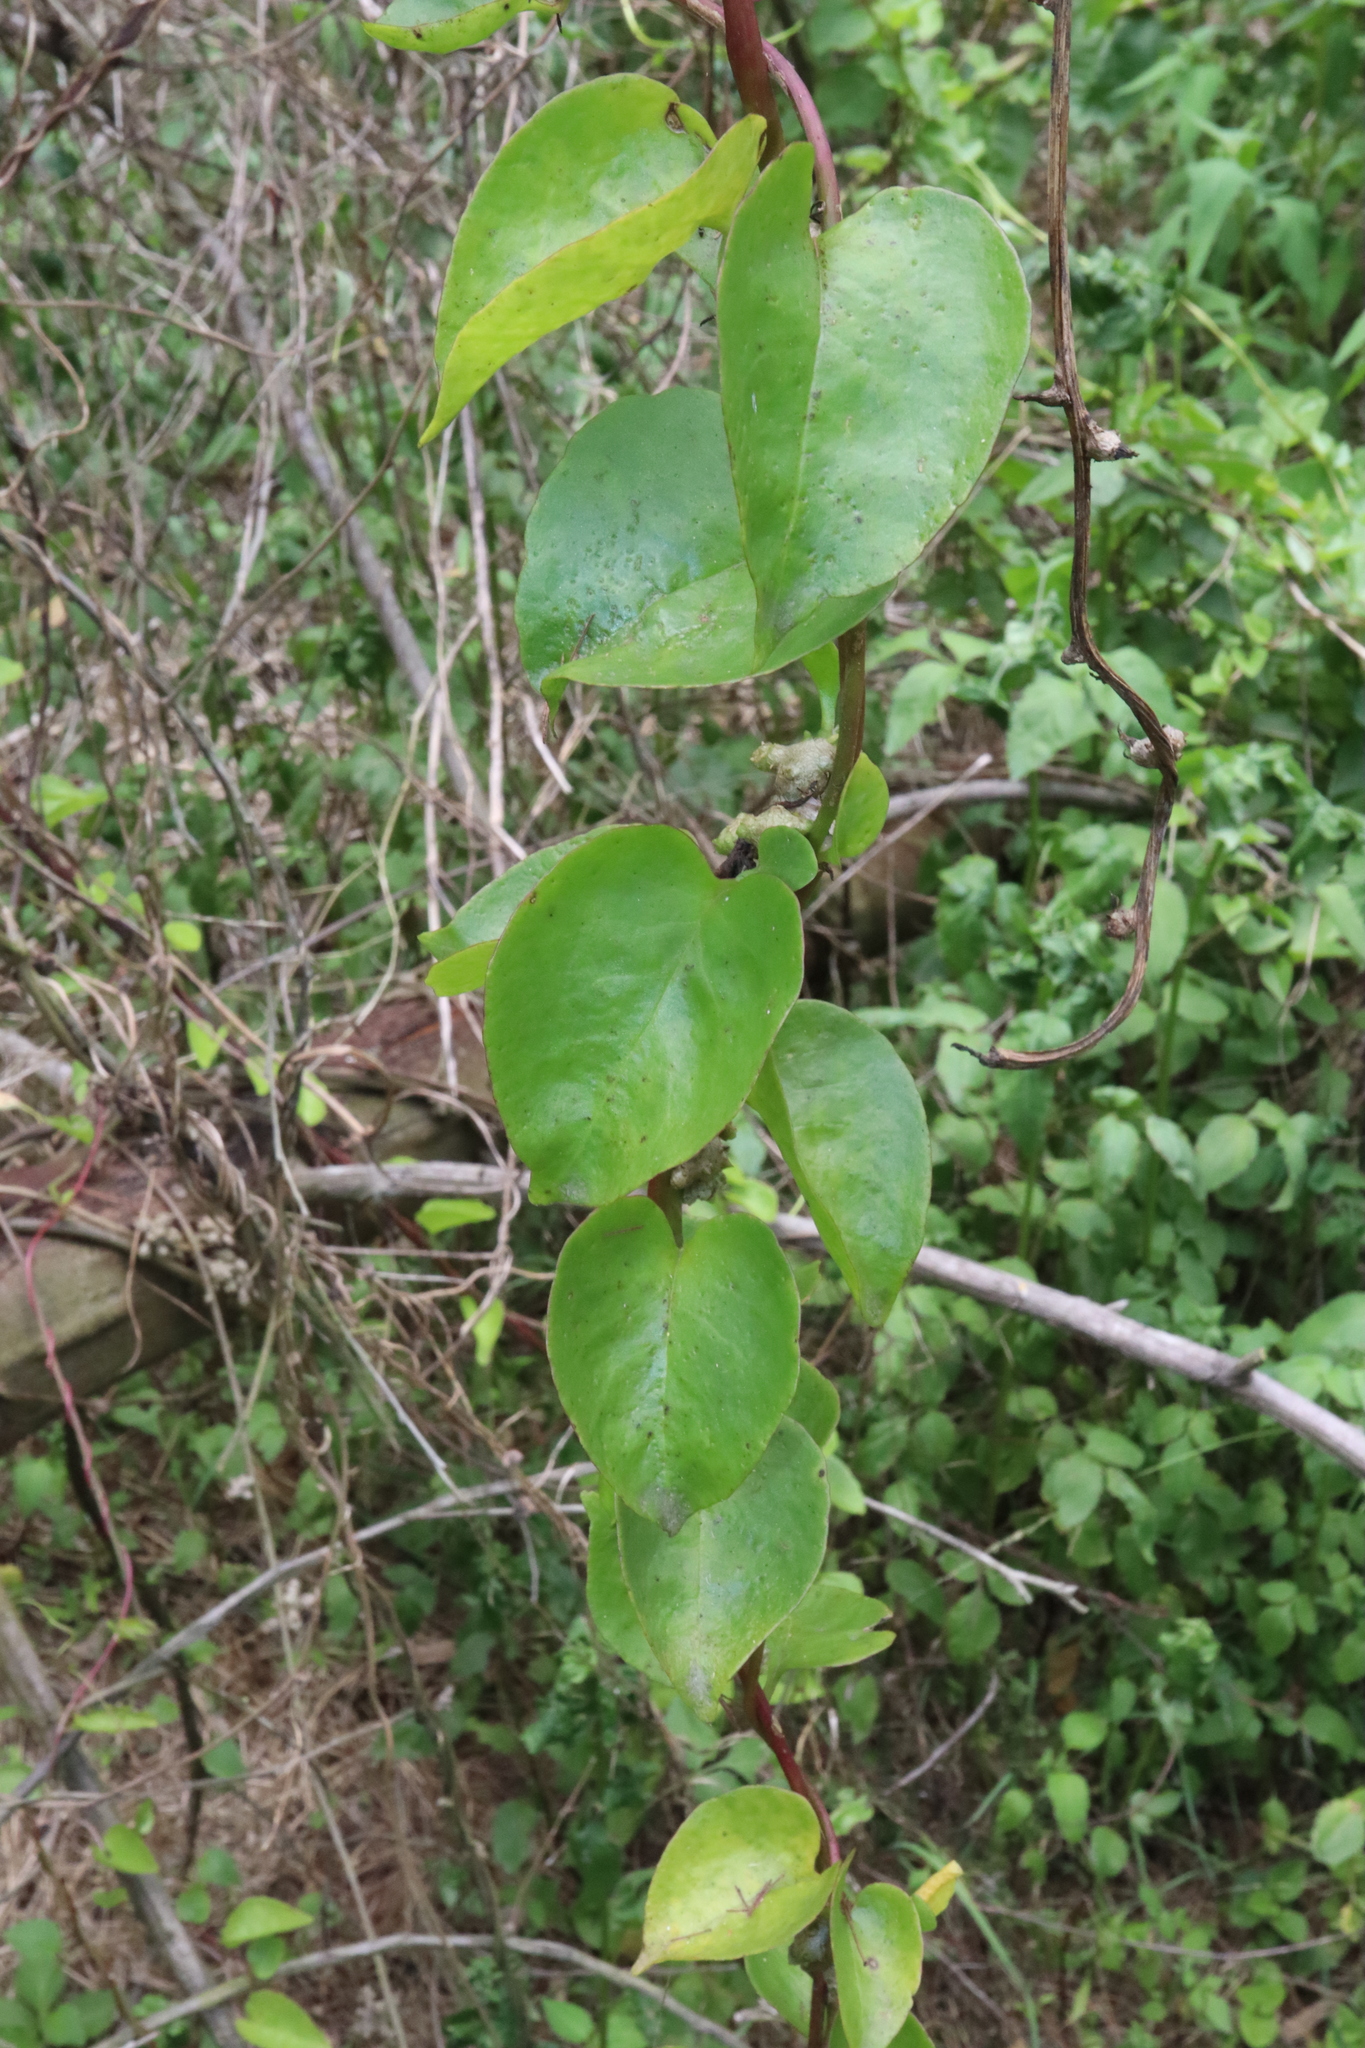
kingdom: Plantae
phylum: Tracheophyta
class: Magnoliopsida
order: Caryophyllales
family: Basellaceae
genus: Anredera
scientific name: Anredera cordifolia
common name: Heartleaf madeiravine
